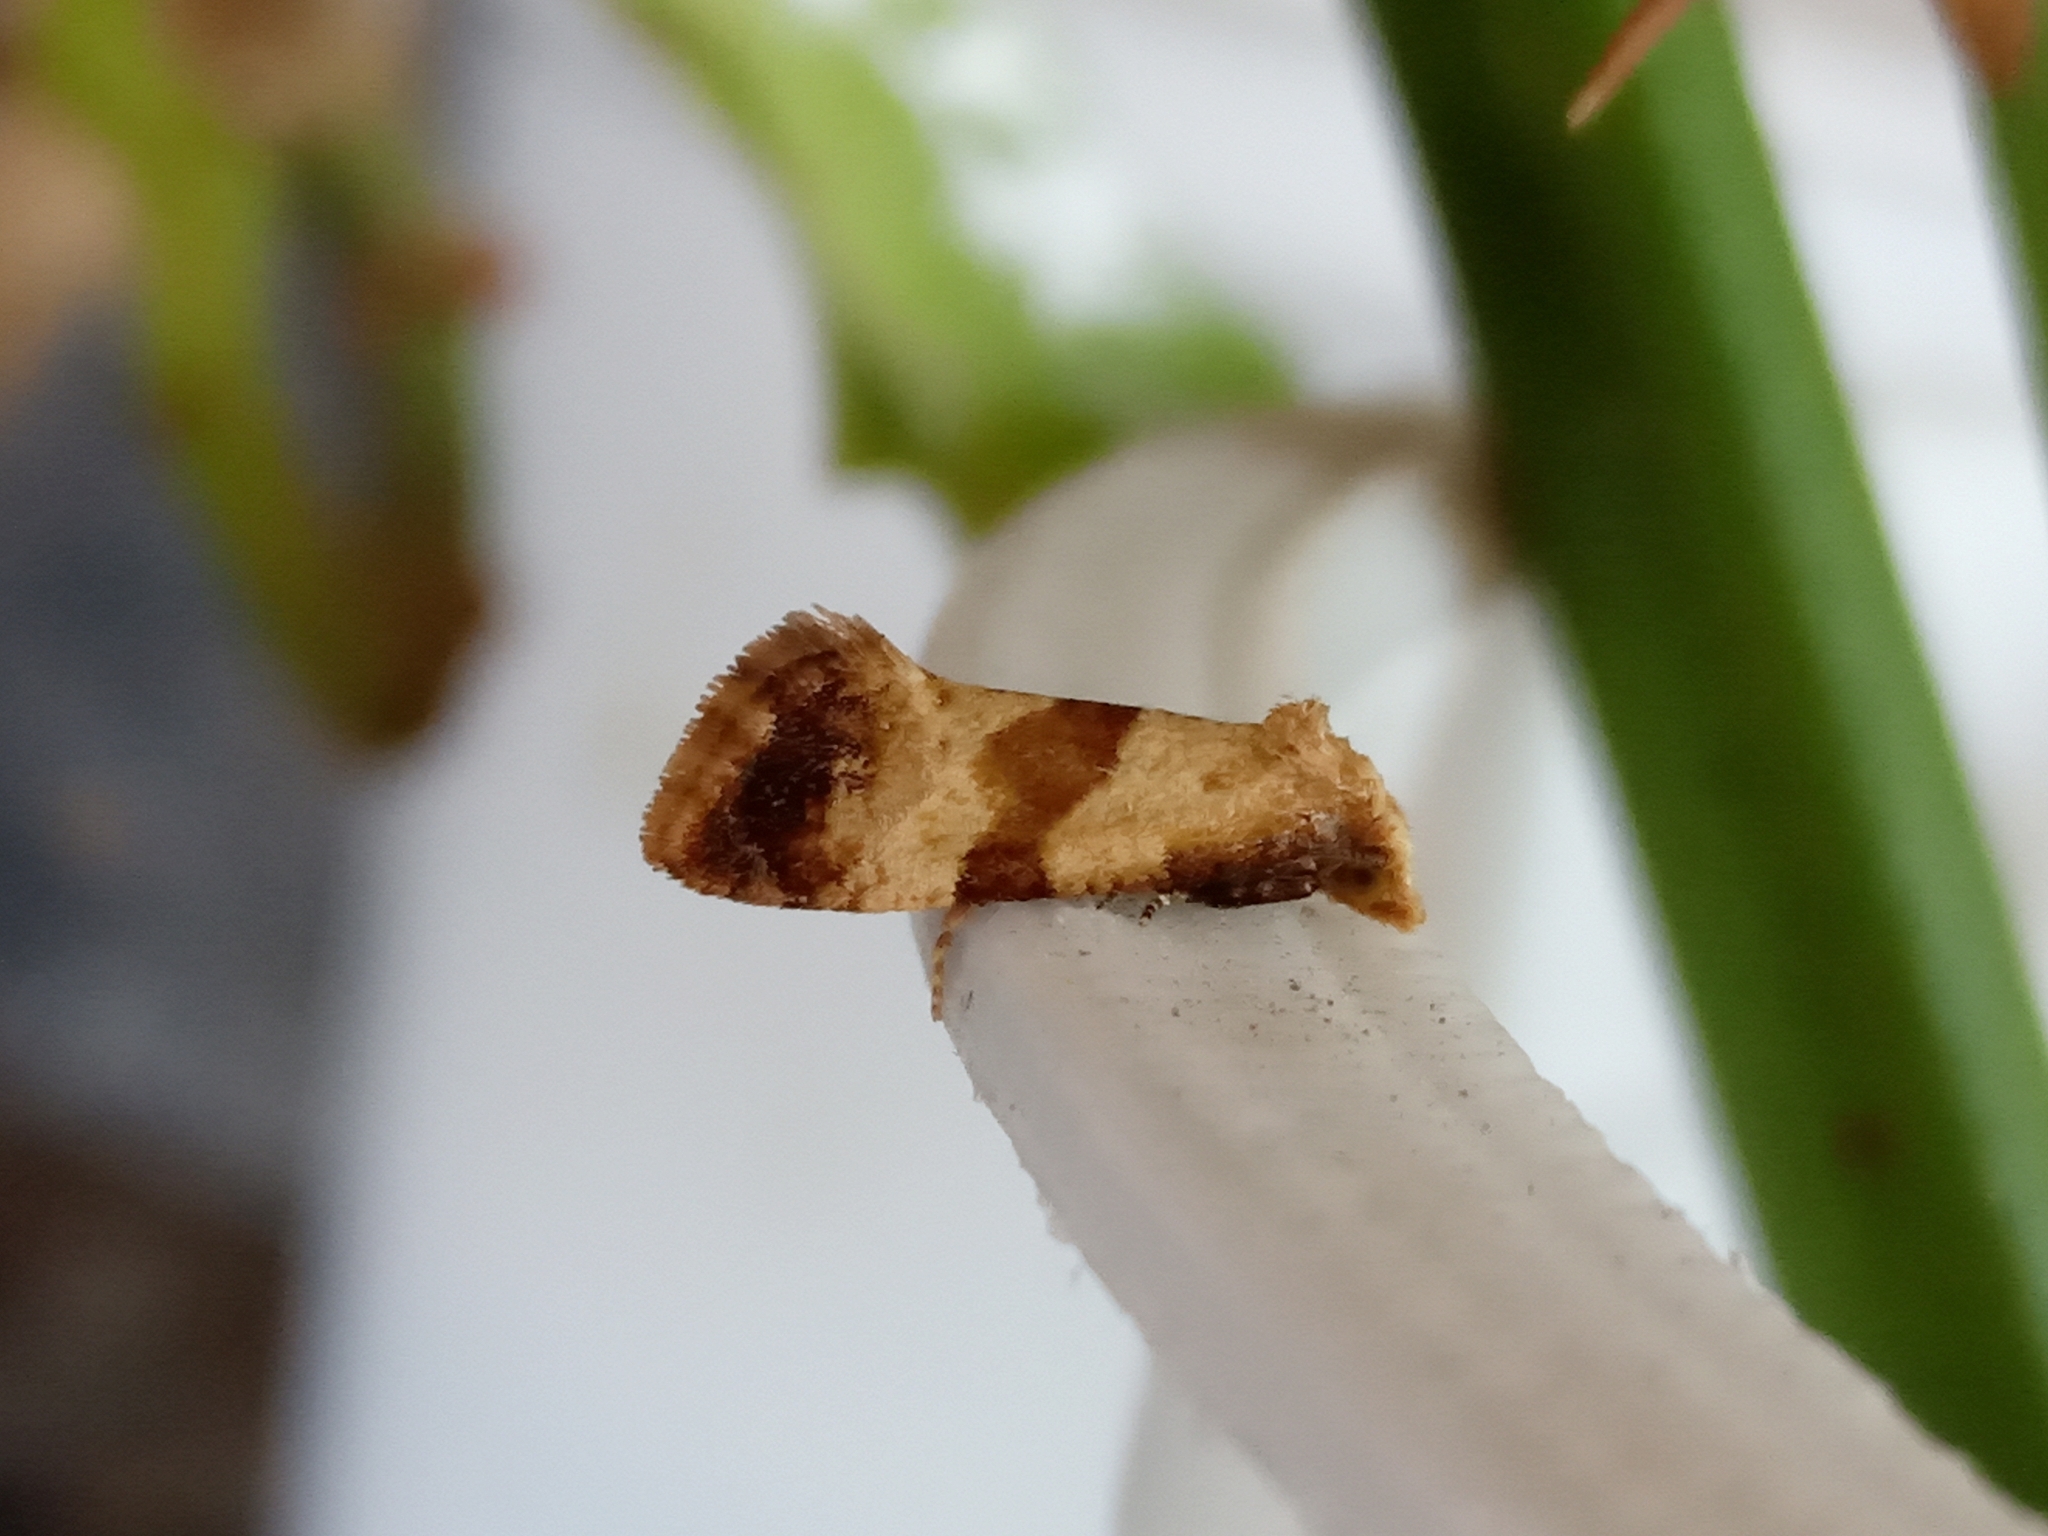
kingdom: Animalia
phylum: Arthropoda
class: Insecta
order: Lepidoptera
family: Tortricidae
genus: Phalonidia
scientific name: Phalonidia contractana
